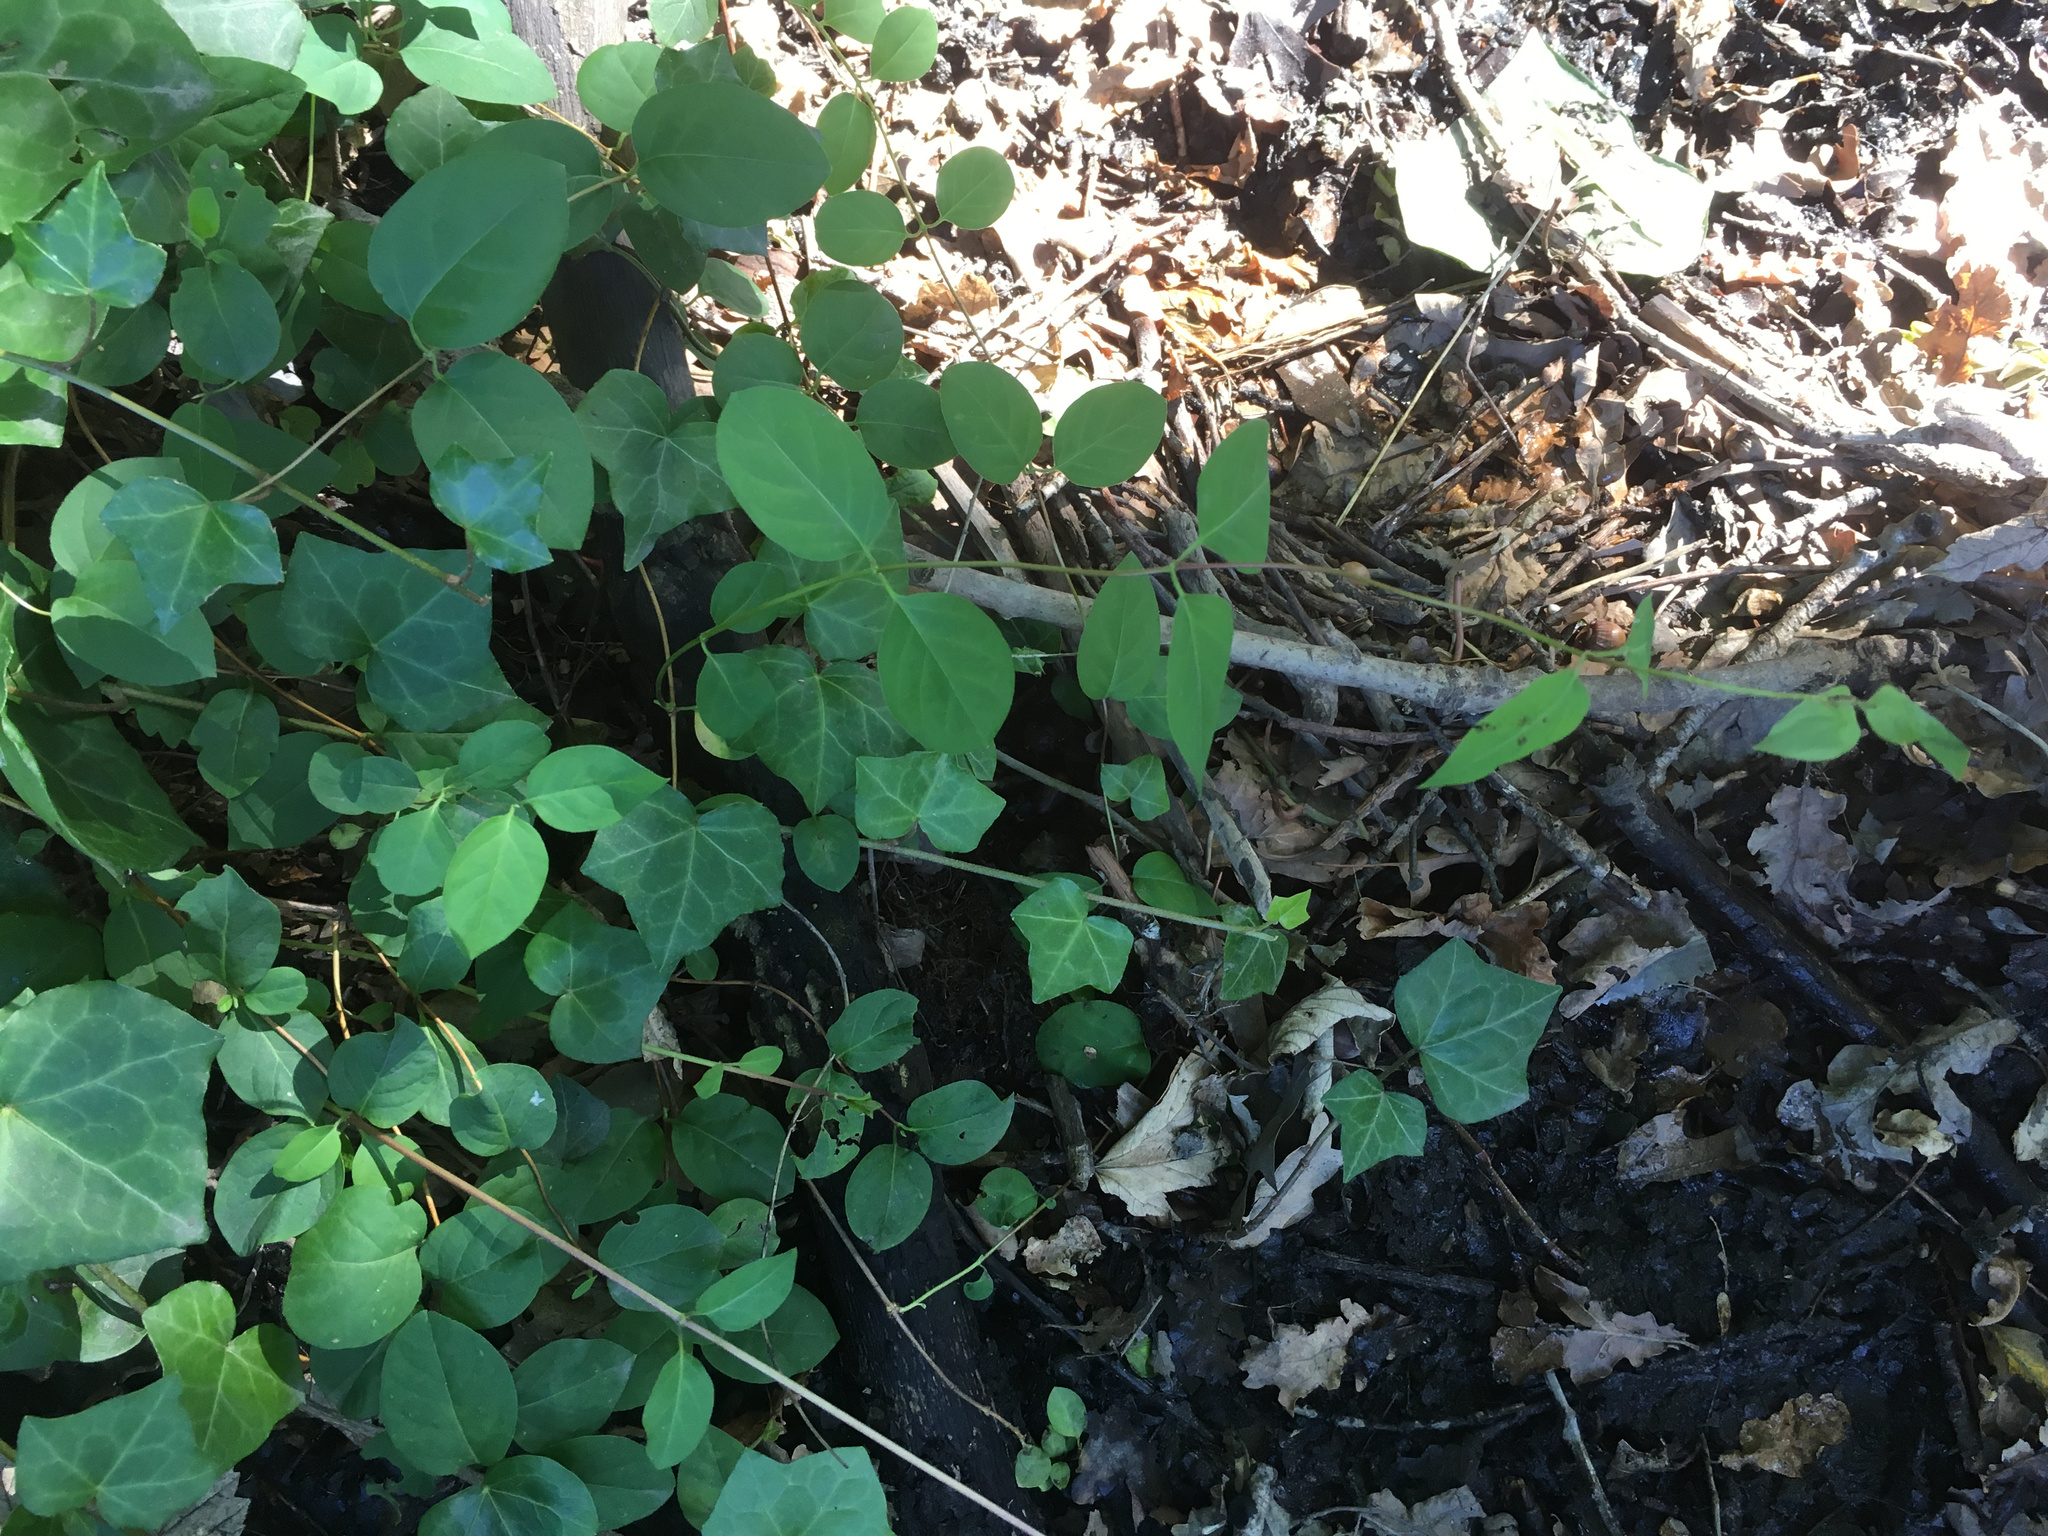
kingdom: Plantae
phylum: Tracheophyta
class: Magnoliopsida
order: Dipsacales
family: Caprifoliaceae
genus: Lonicera
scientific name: Lonicera japonica
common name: Japanese honeysuckle
